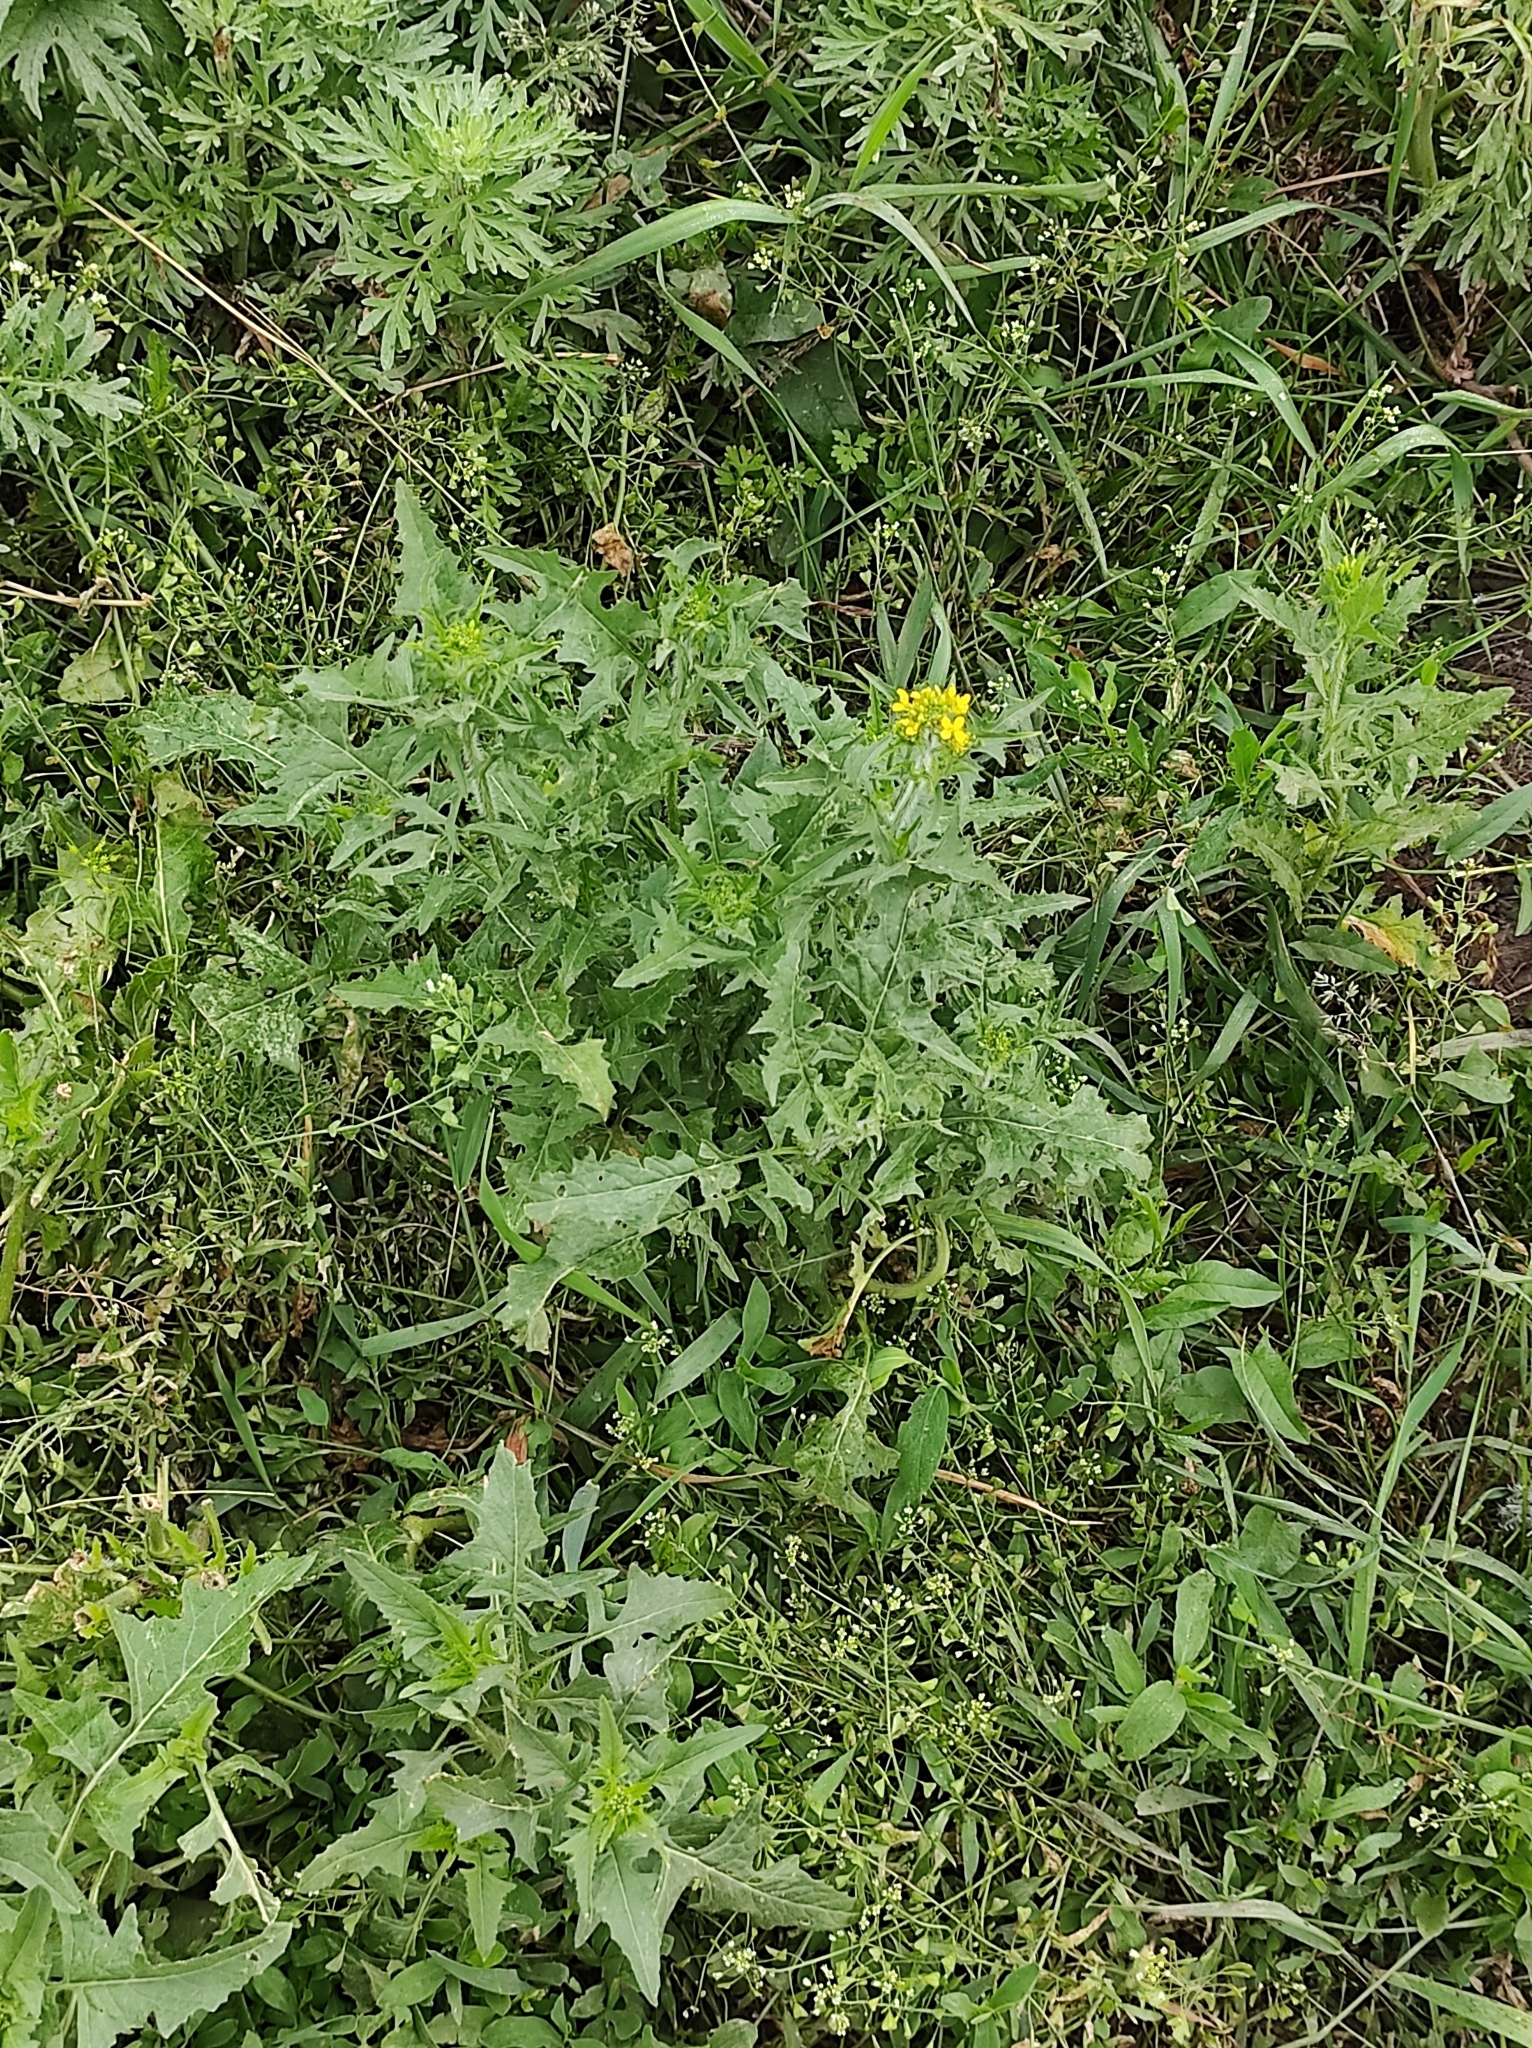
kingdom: Plantae
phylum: Tracheophyta
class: Magnoliopsida
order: Brassicales
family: Brassicaceae
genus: Sisymbrium
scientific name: Sisymbrium loeselii
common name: False london-rocket
